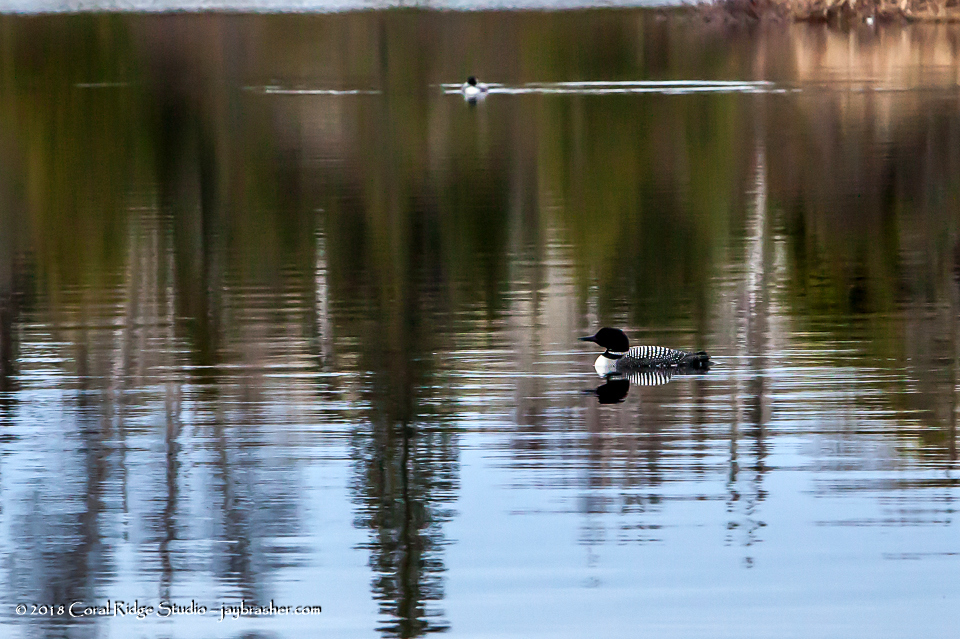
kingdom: Animalia
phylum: Chordata
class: Aves
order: Gaviiformes
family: Gaviidae
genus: Gavia
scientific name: Gavia immer
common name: Common loon
